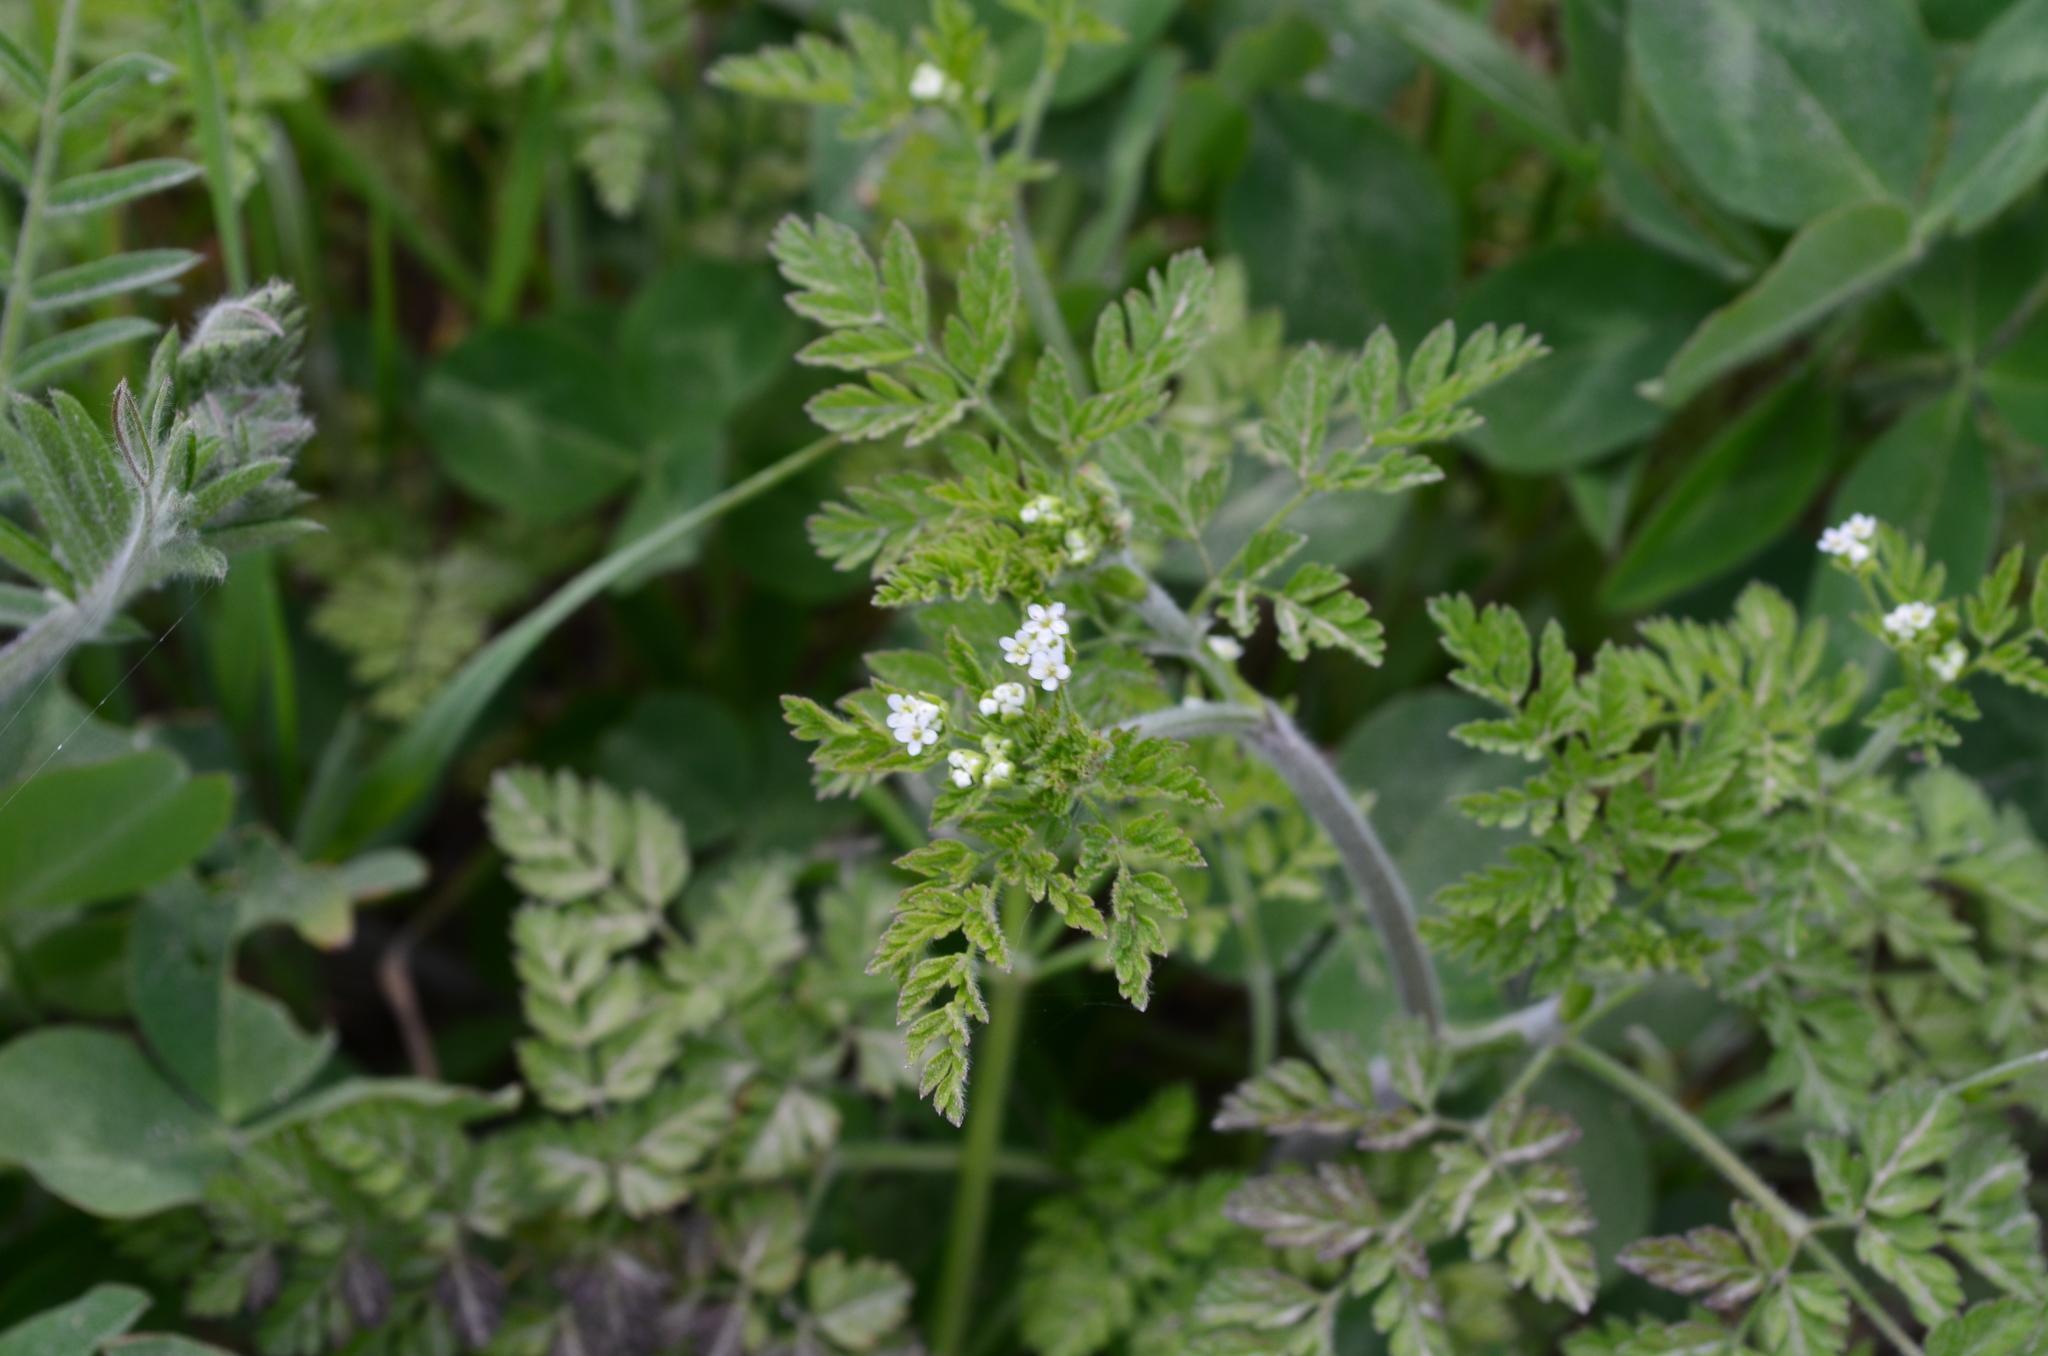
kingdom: Plantae
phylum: Tracheophyta
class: Magnoliopsida
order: Apiales
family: Apiaceae
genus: Chaerophyllum
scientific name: Chaerophyllum tainturieri
